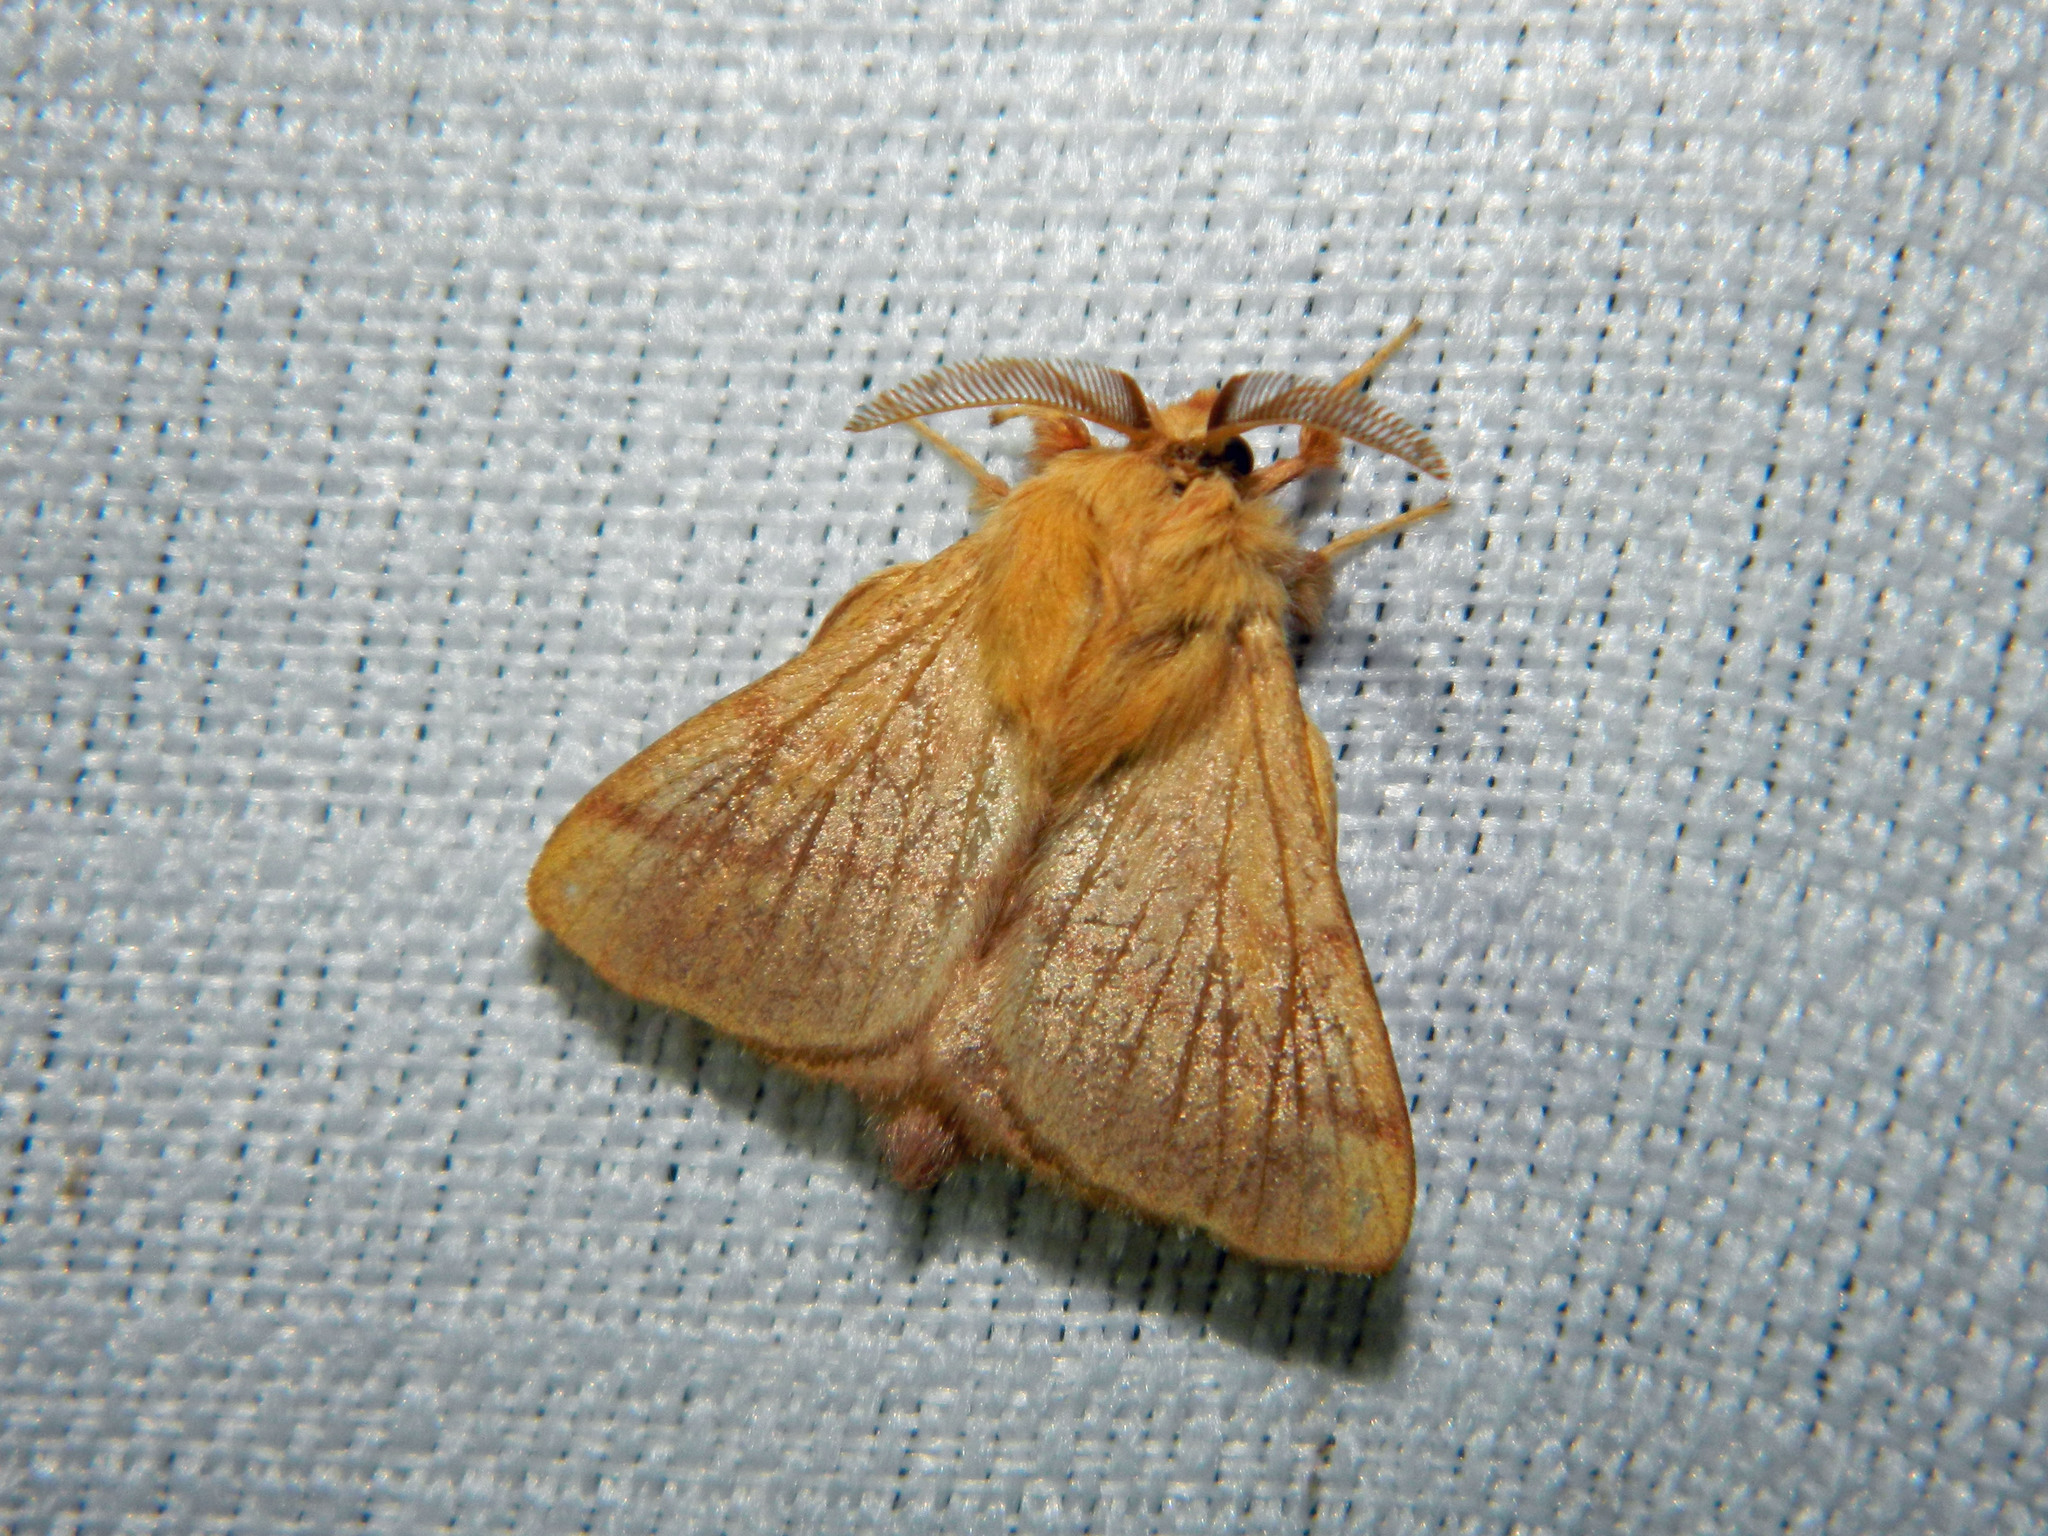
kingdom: Animalia
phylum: Arthropoda
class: Insecta
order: Lepidoptera
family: Lasiocampidae
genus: Malacosoma
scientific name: Malacosoma disstria
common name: Forest tent caterpillar
